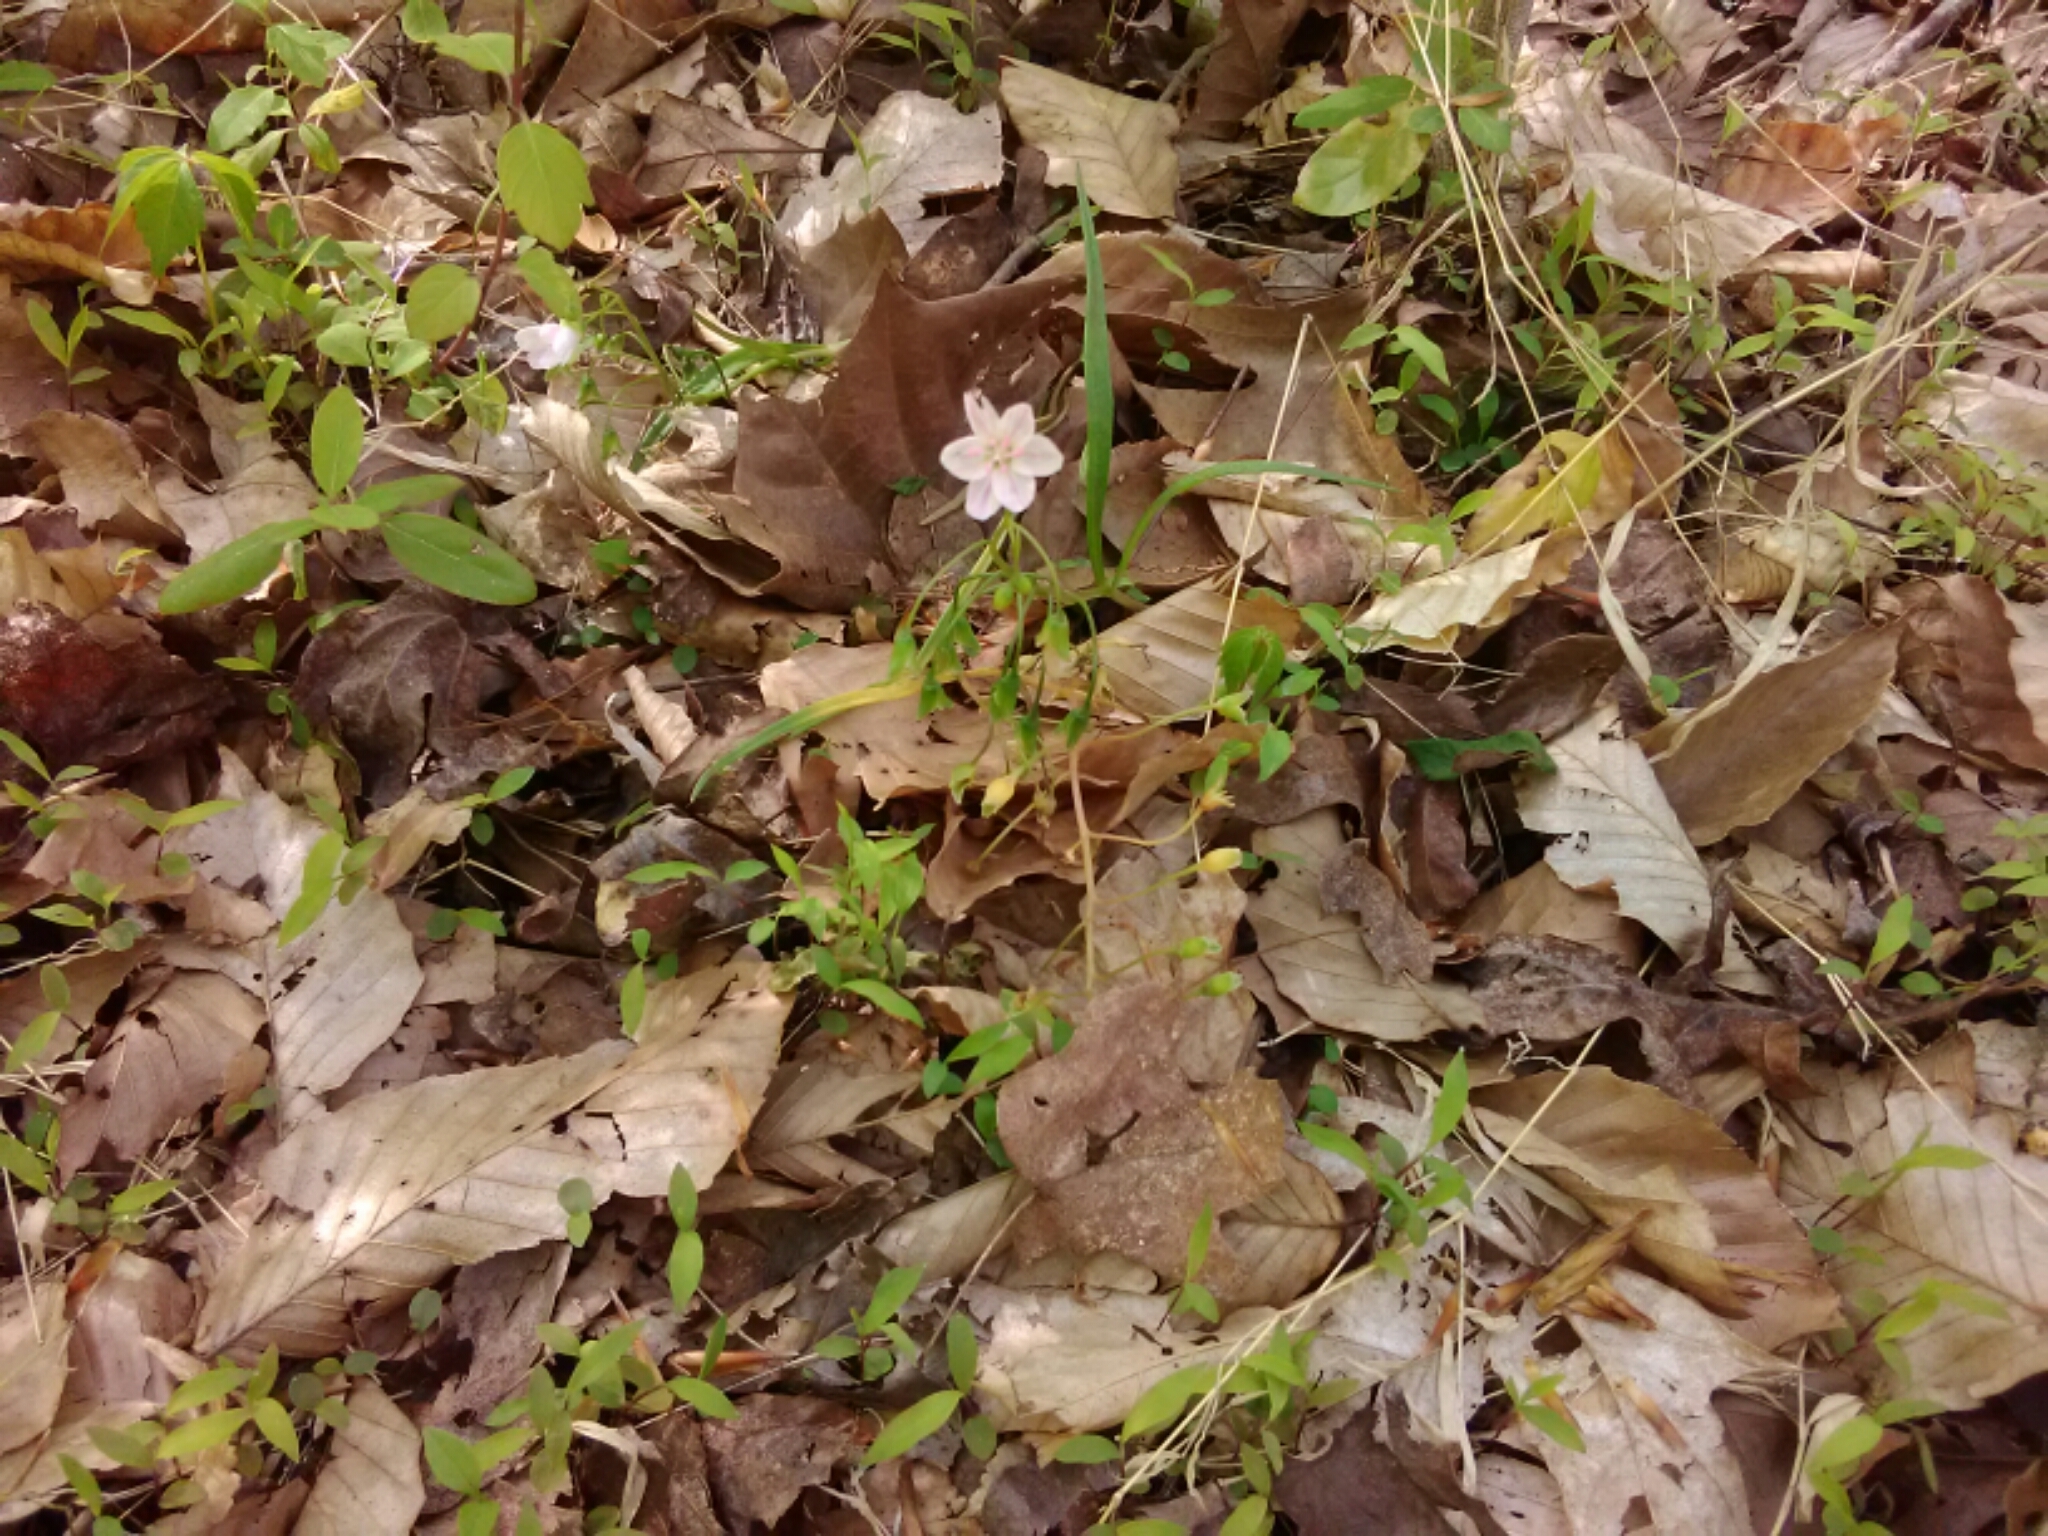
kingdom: Plantae
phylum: Tracheophyta
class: Magnoliopsida
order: Caryophyllales
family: Montiaceae
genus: Claytonia
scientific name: Claytonia virginica
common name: Virginia springbeauty
